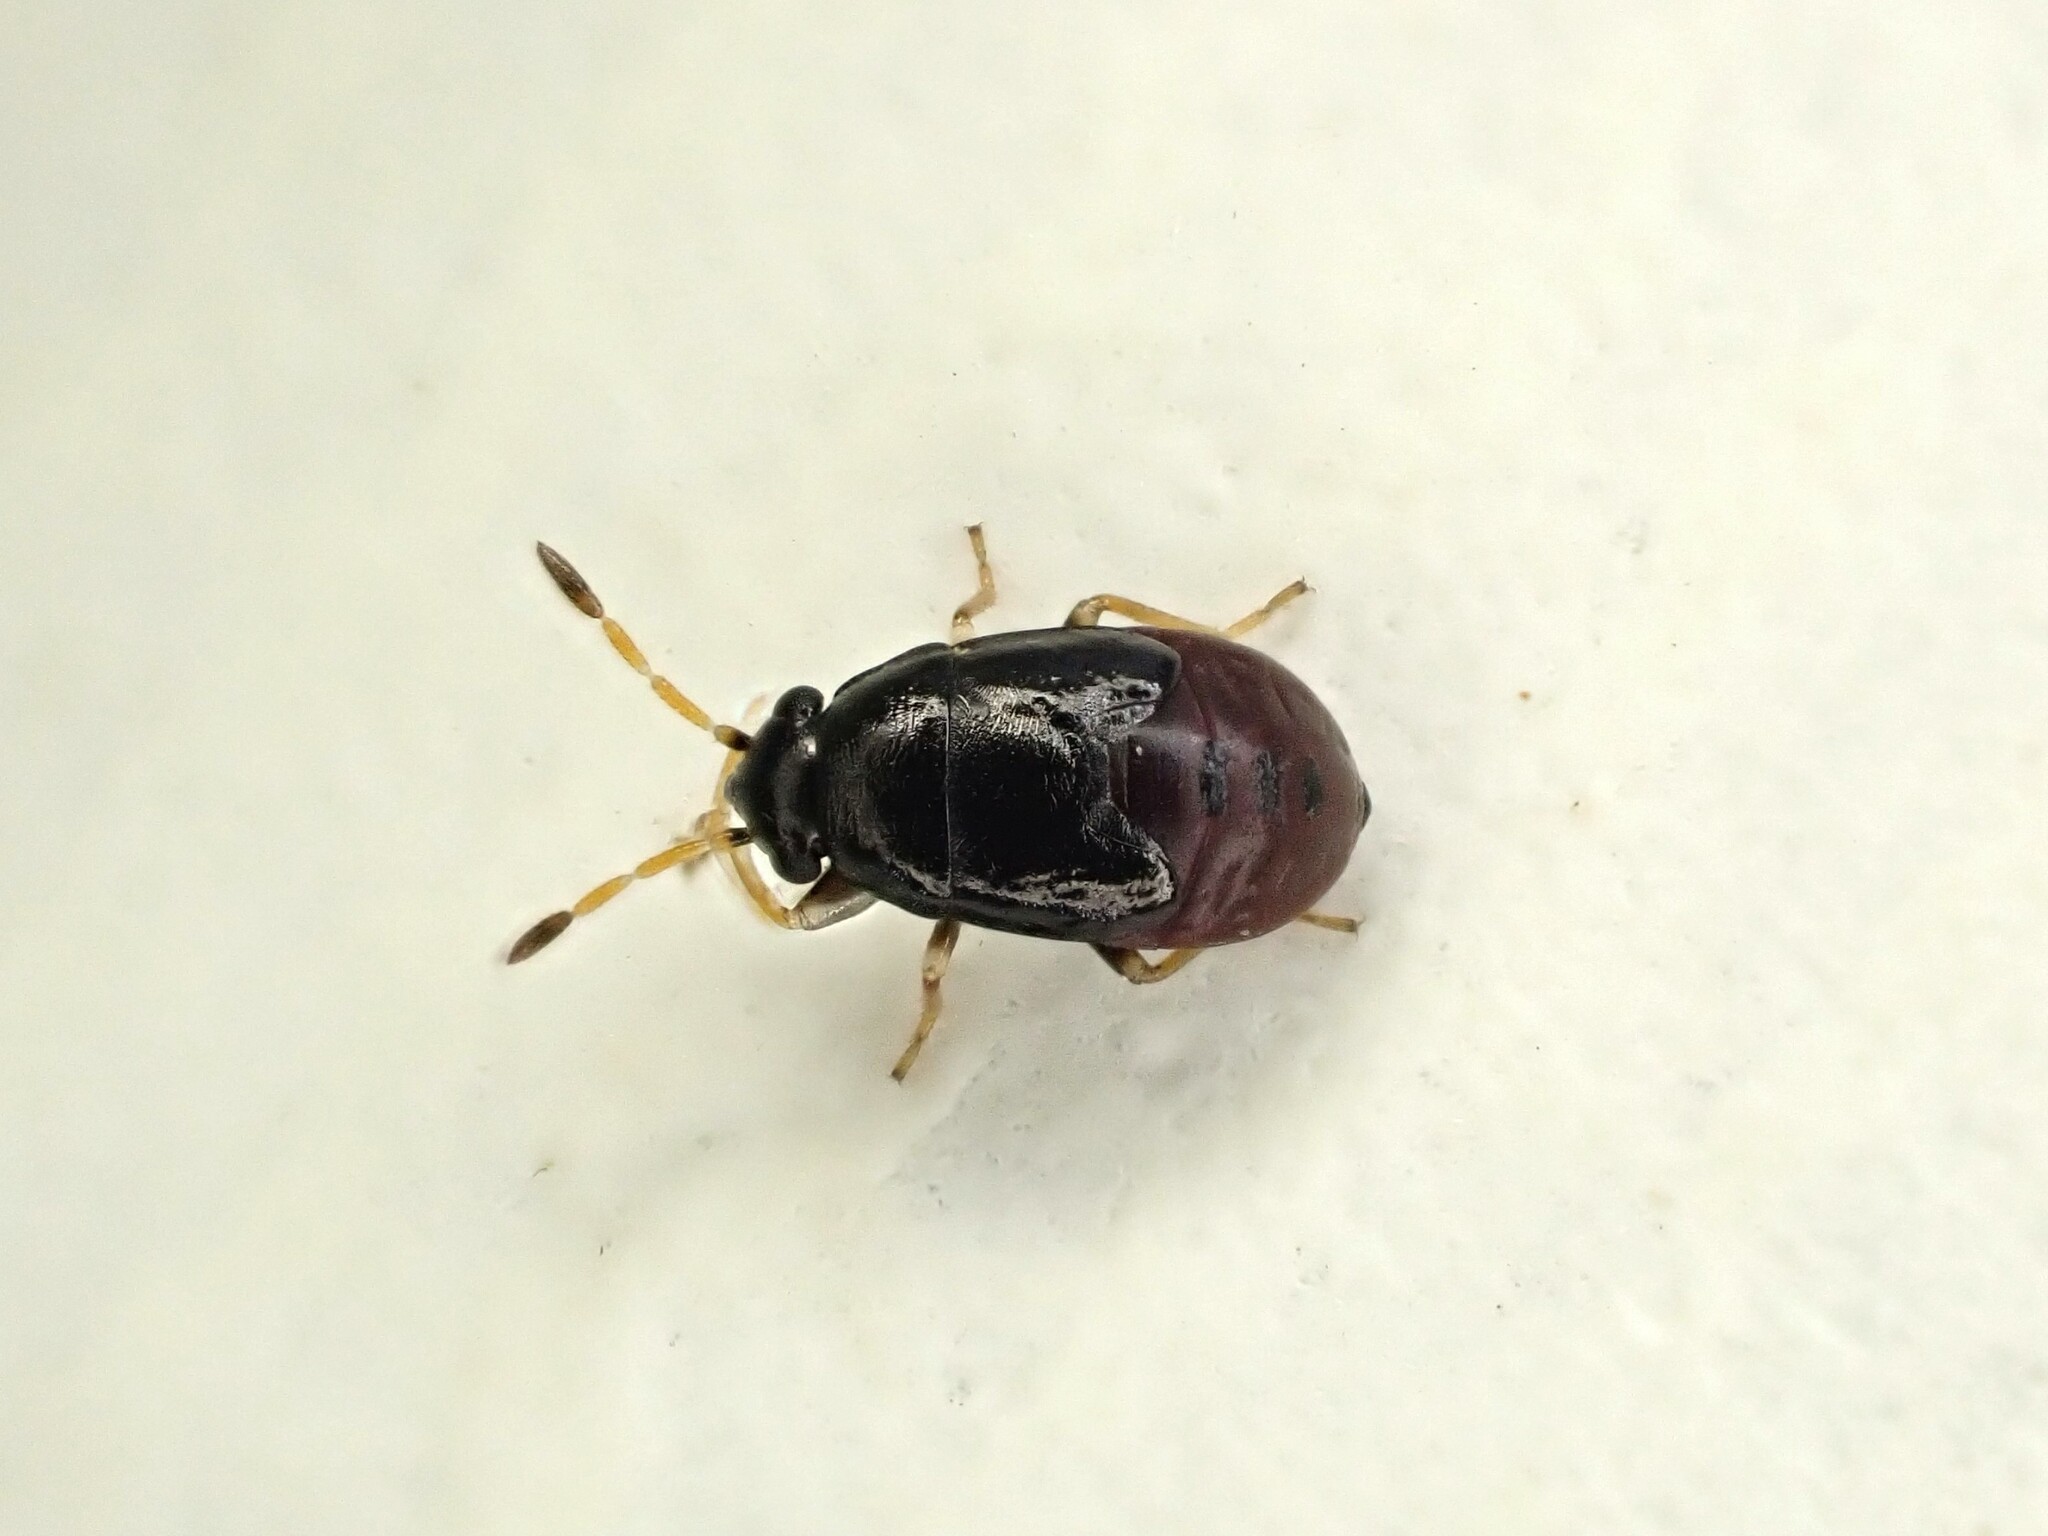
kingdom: Animalia
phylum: Arthropoda
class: Insecta
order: Hemiptera
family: Rhyparochromidae
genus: Stizocephalus
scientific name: Stizocephalus brevirostris
